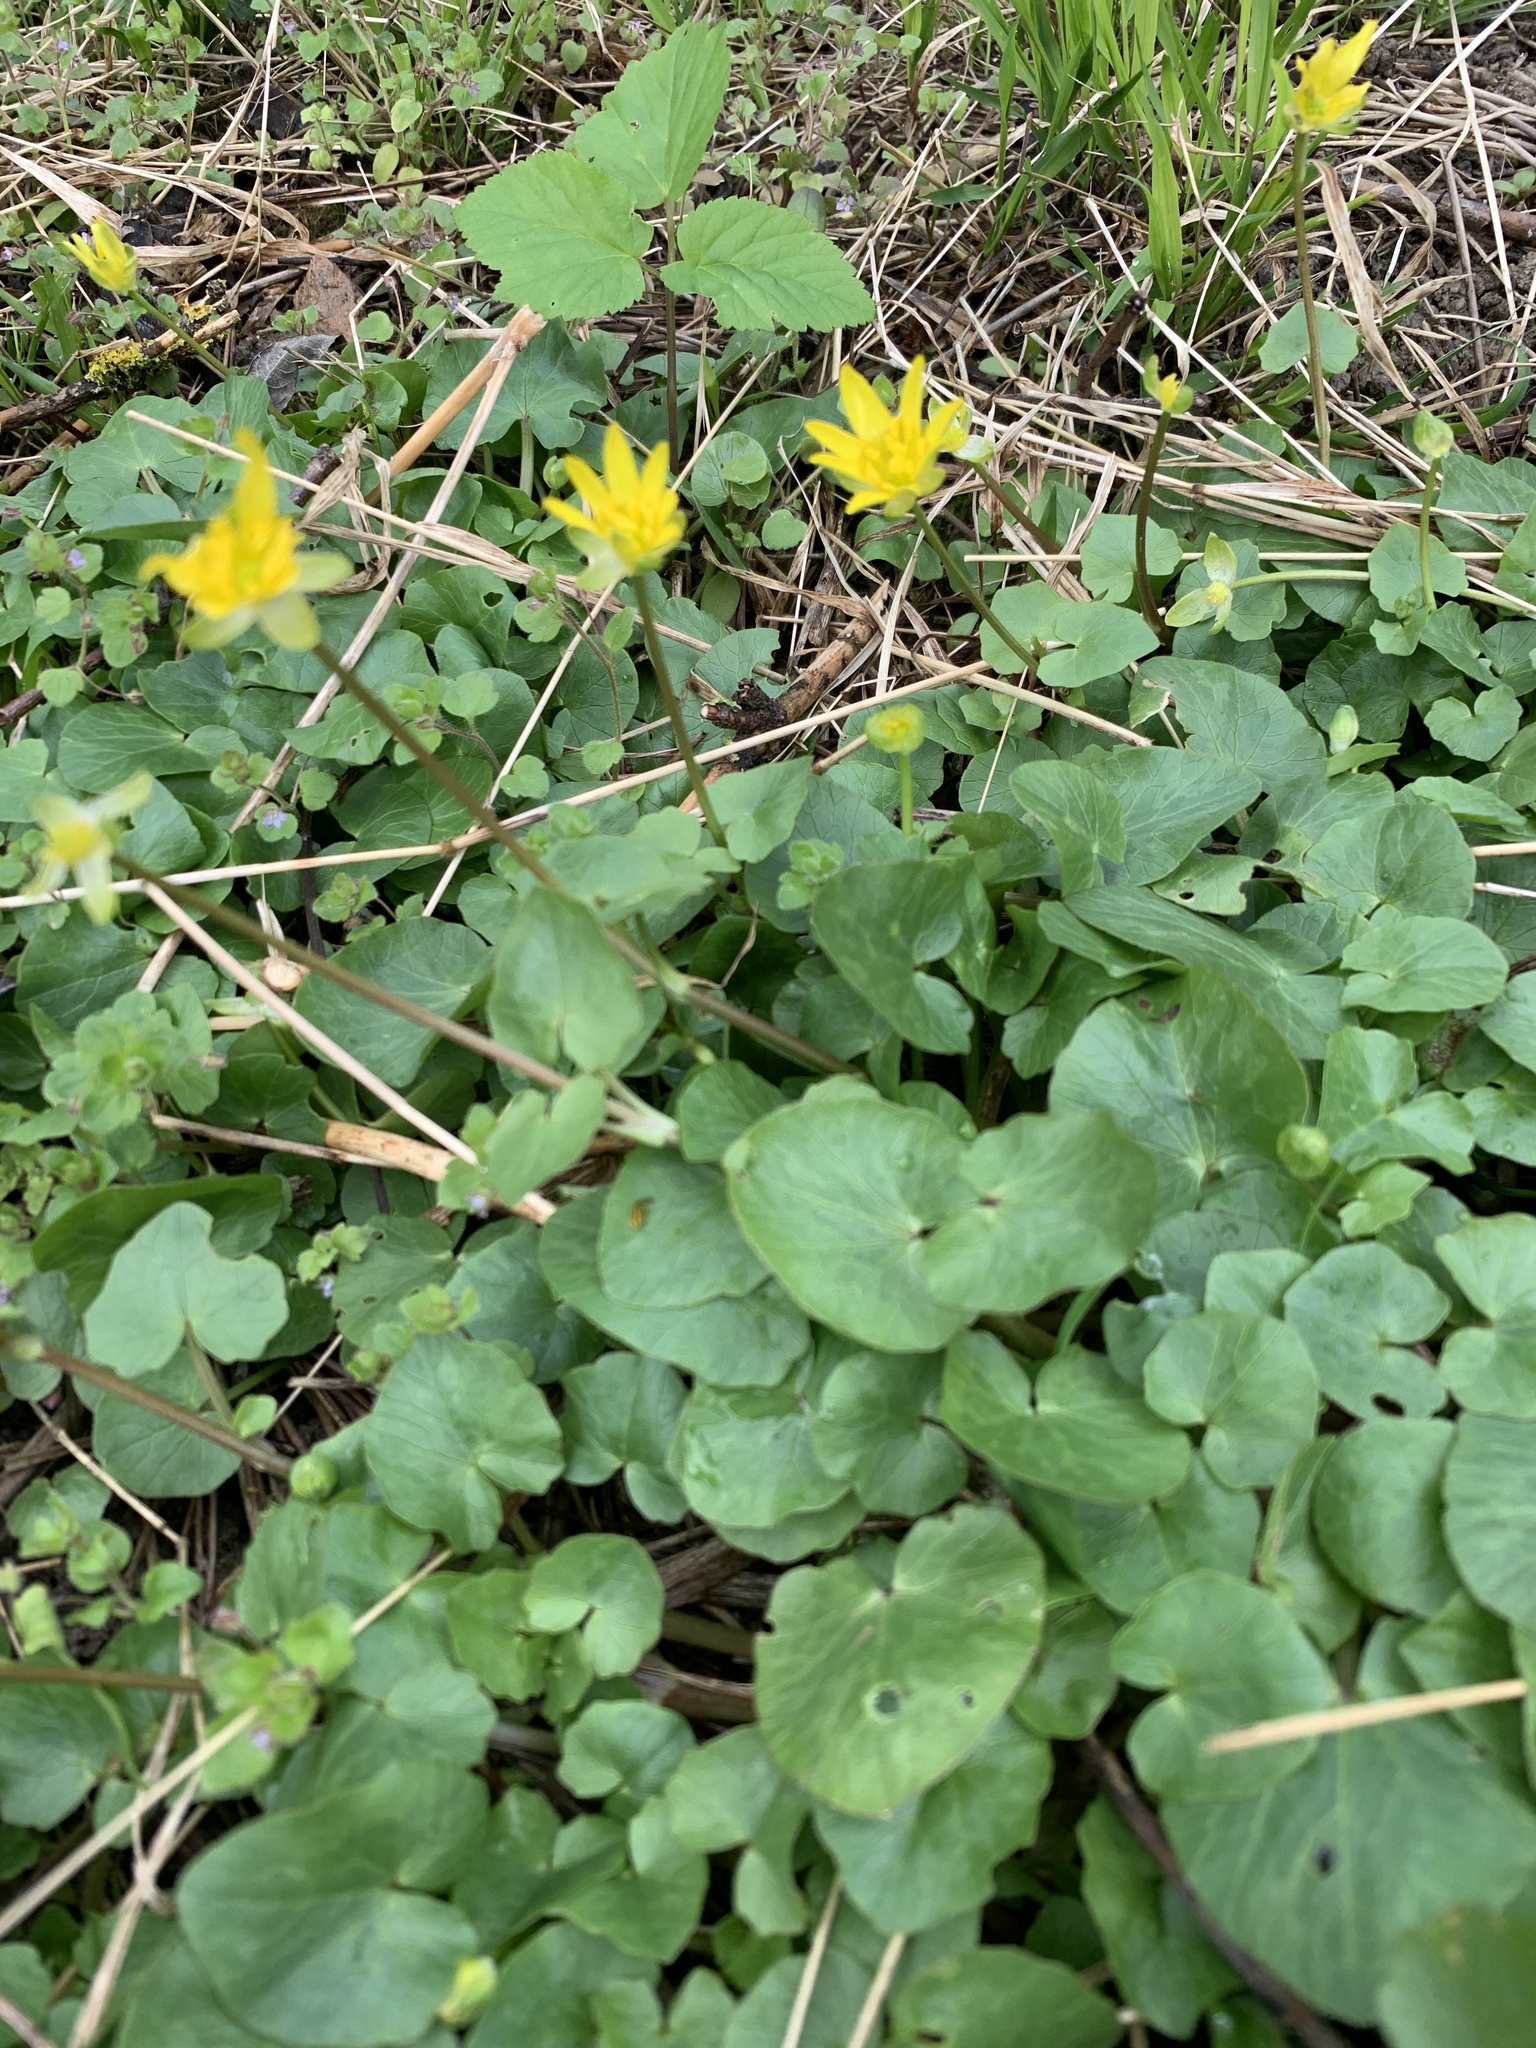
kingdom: Plantae
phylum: Tracheophyta
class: Magnoliopsida
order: Ranunculales
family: Ranunculaceae
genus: Ficaria
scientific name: Ficaria verna
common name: Lesser celandine
